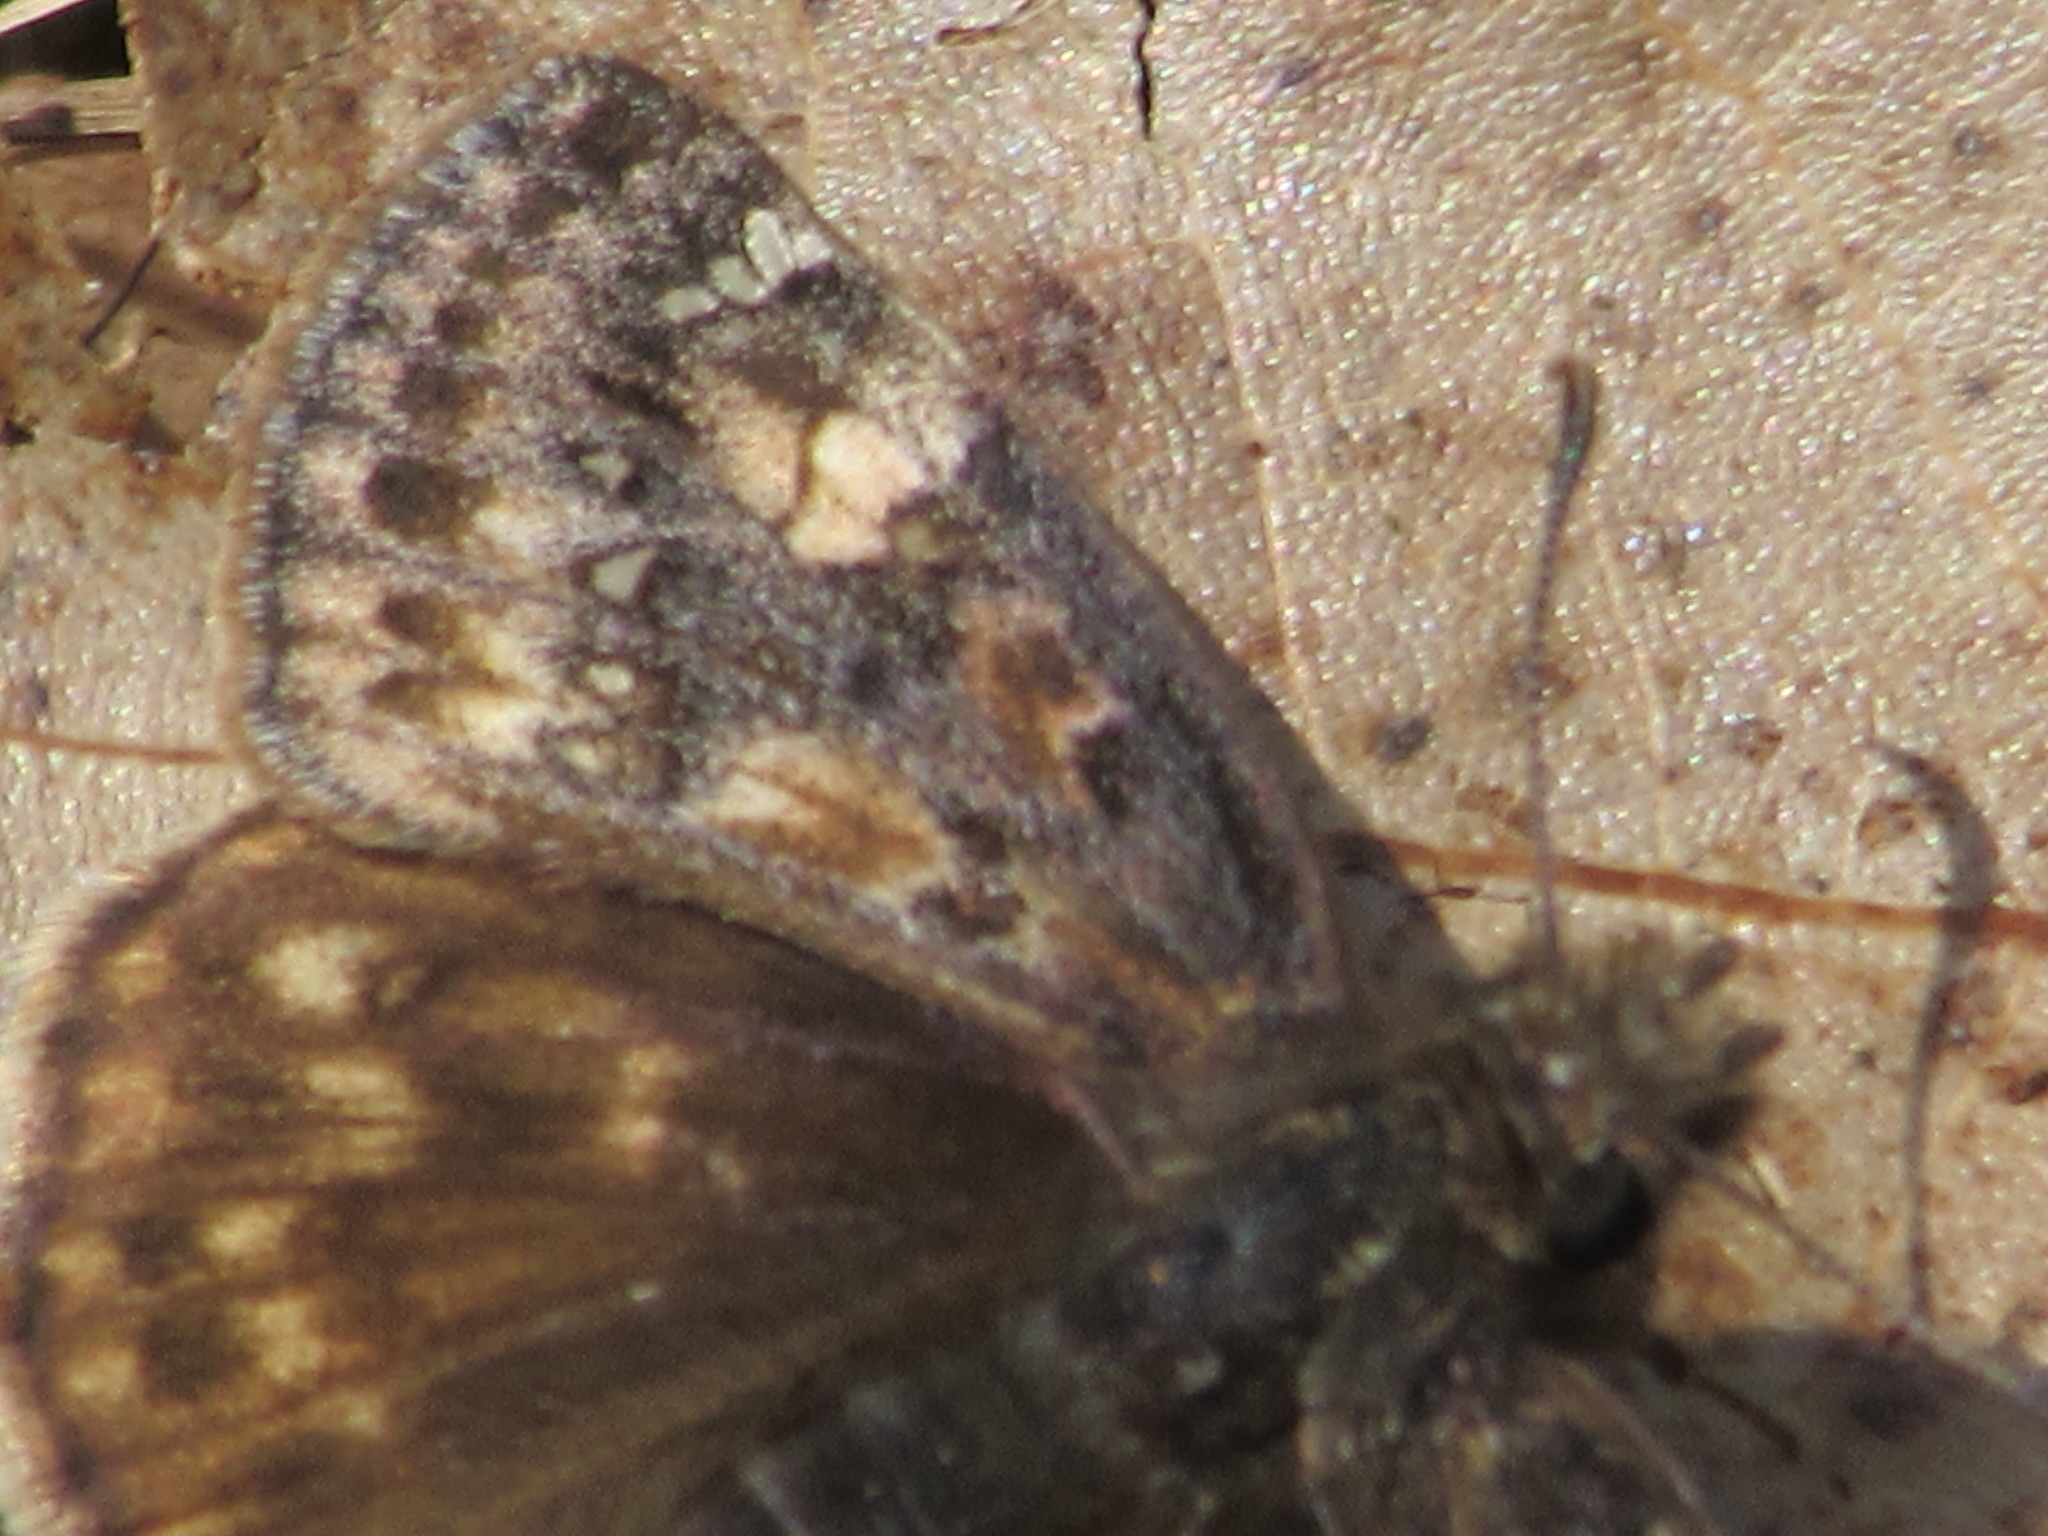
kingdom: Animalia
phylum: Arthropoda
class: Insecta
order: Lepidoptera
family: Hesperiidae
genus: Erynnis
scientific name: Erynnis juvenalis
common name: Juvenal's duskywing
